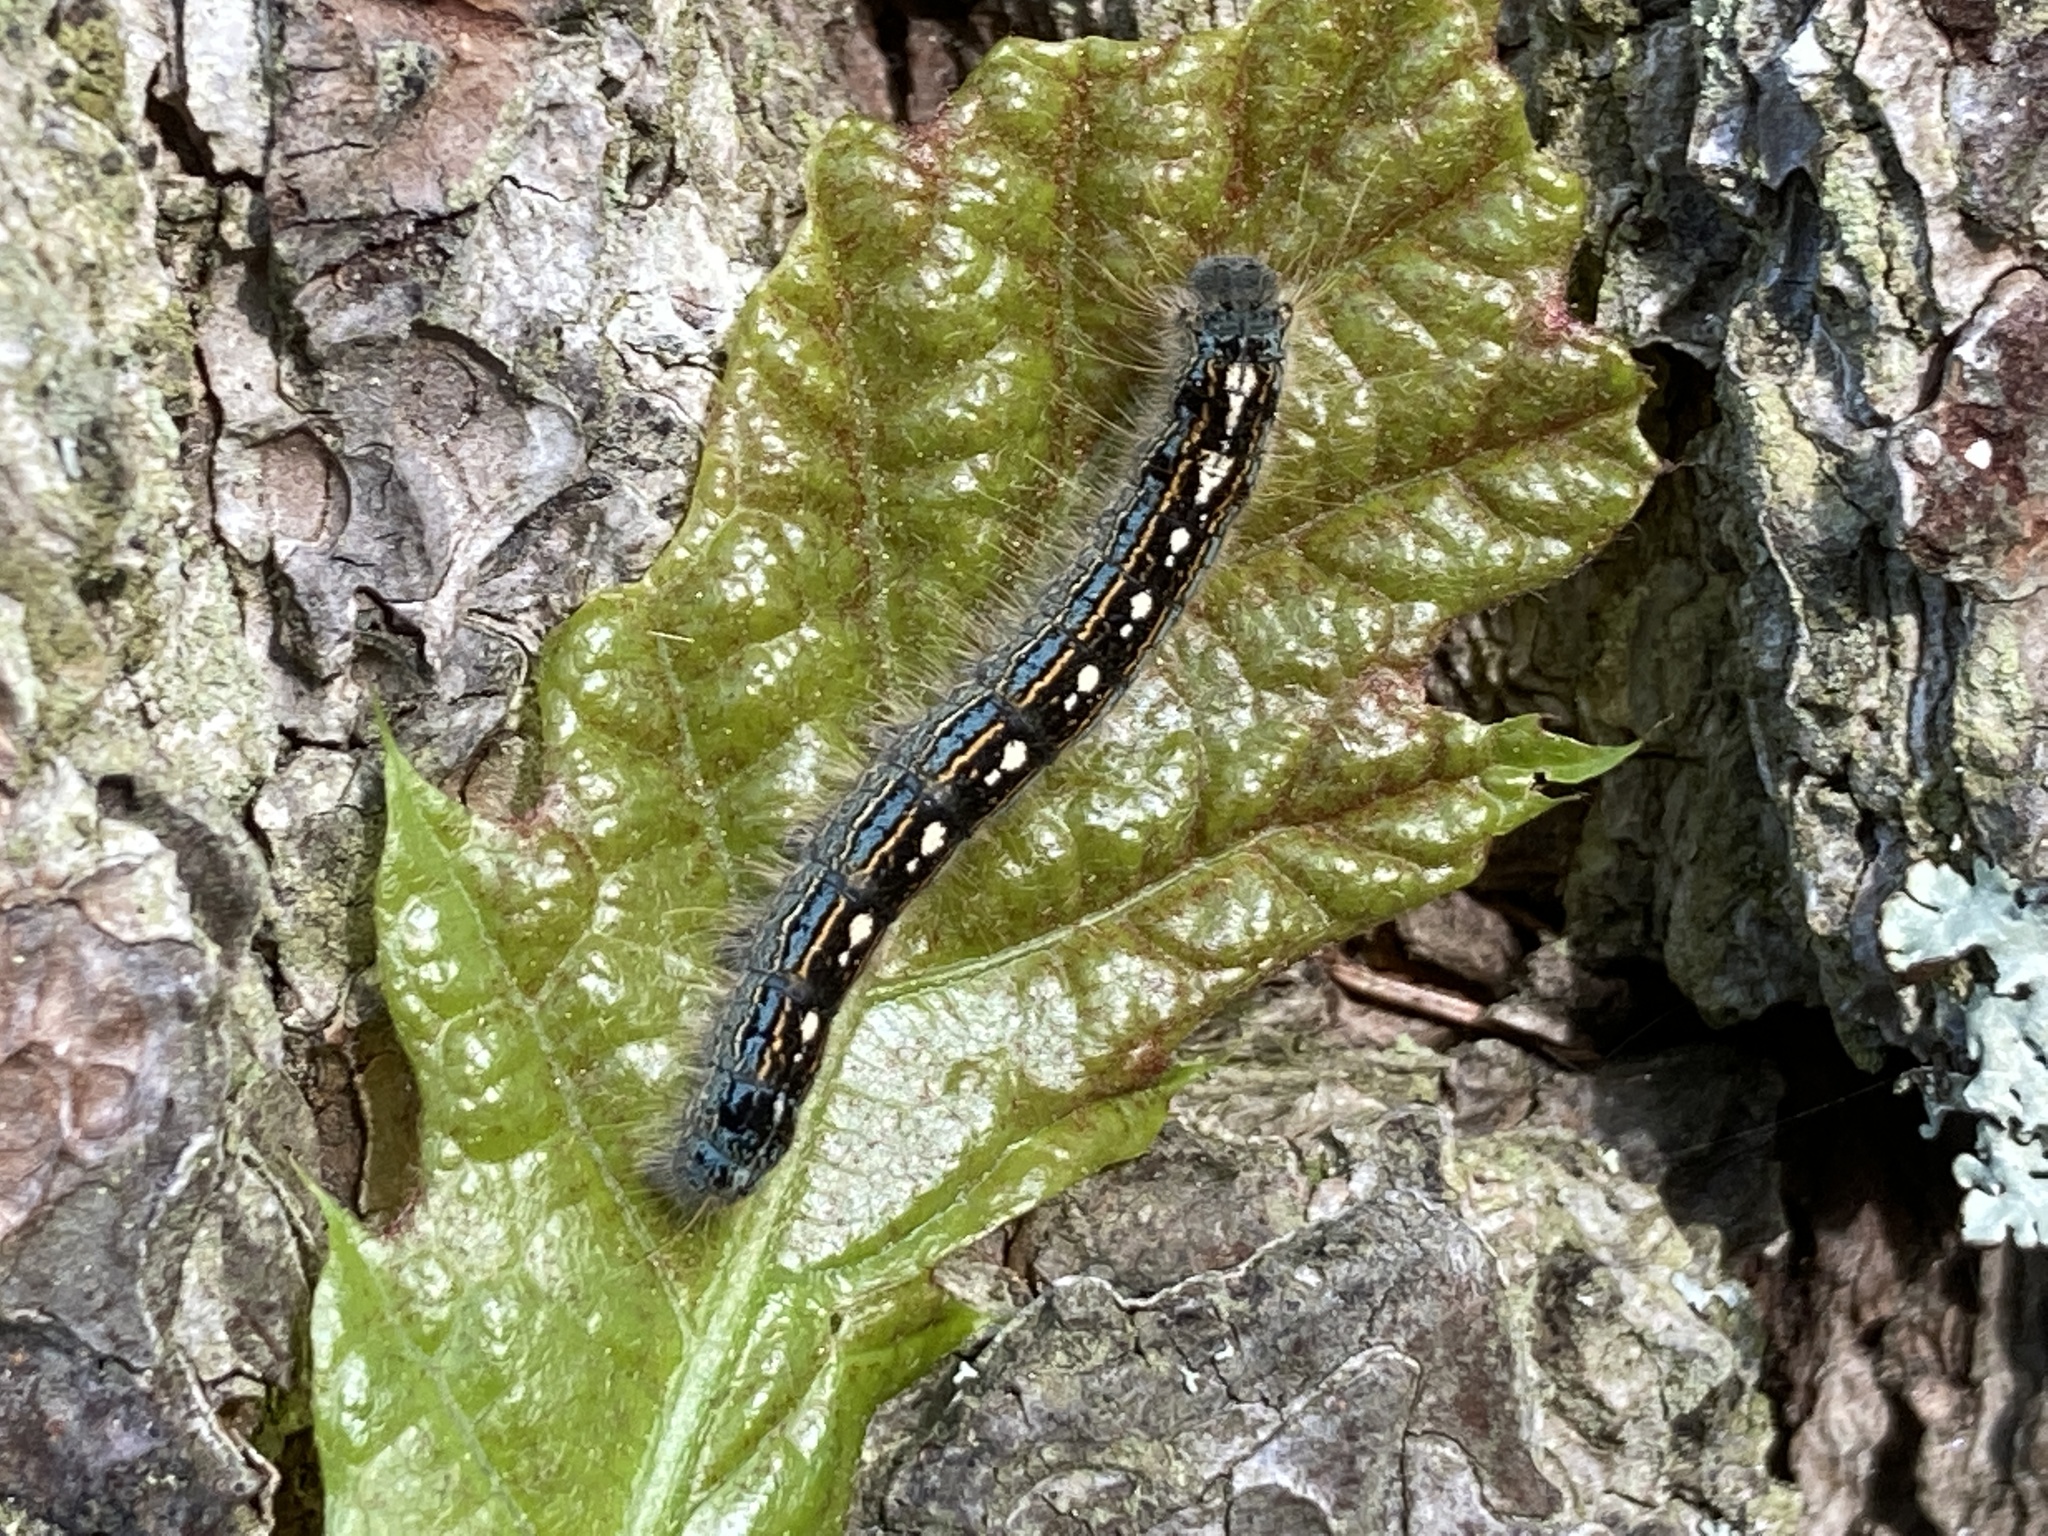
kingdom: Animalia
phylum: Arthropoda
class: Insecta
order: Lepidoptera
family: Lasiocampidae
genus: Malacosoma
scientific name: Malacosoma disstria
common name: Forest tent caterpillar
